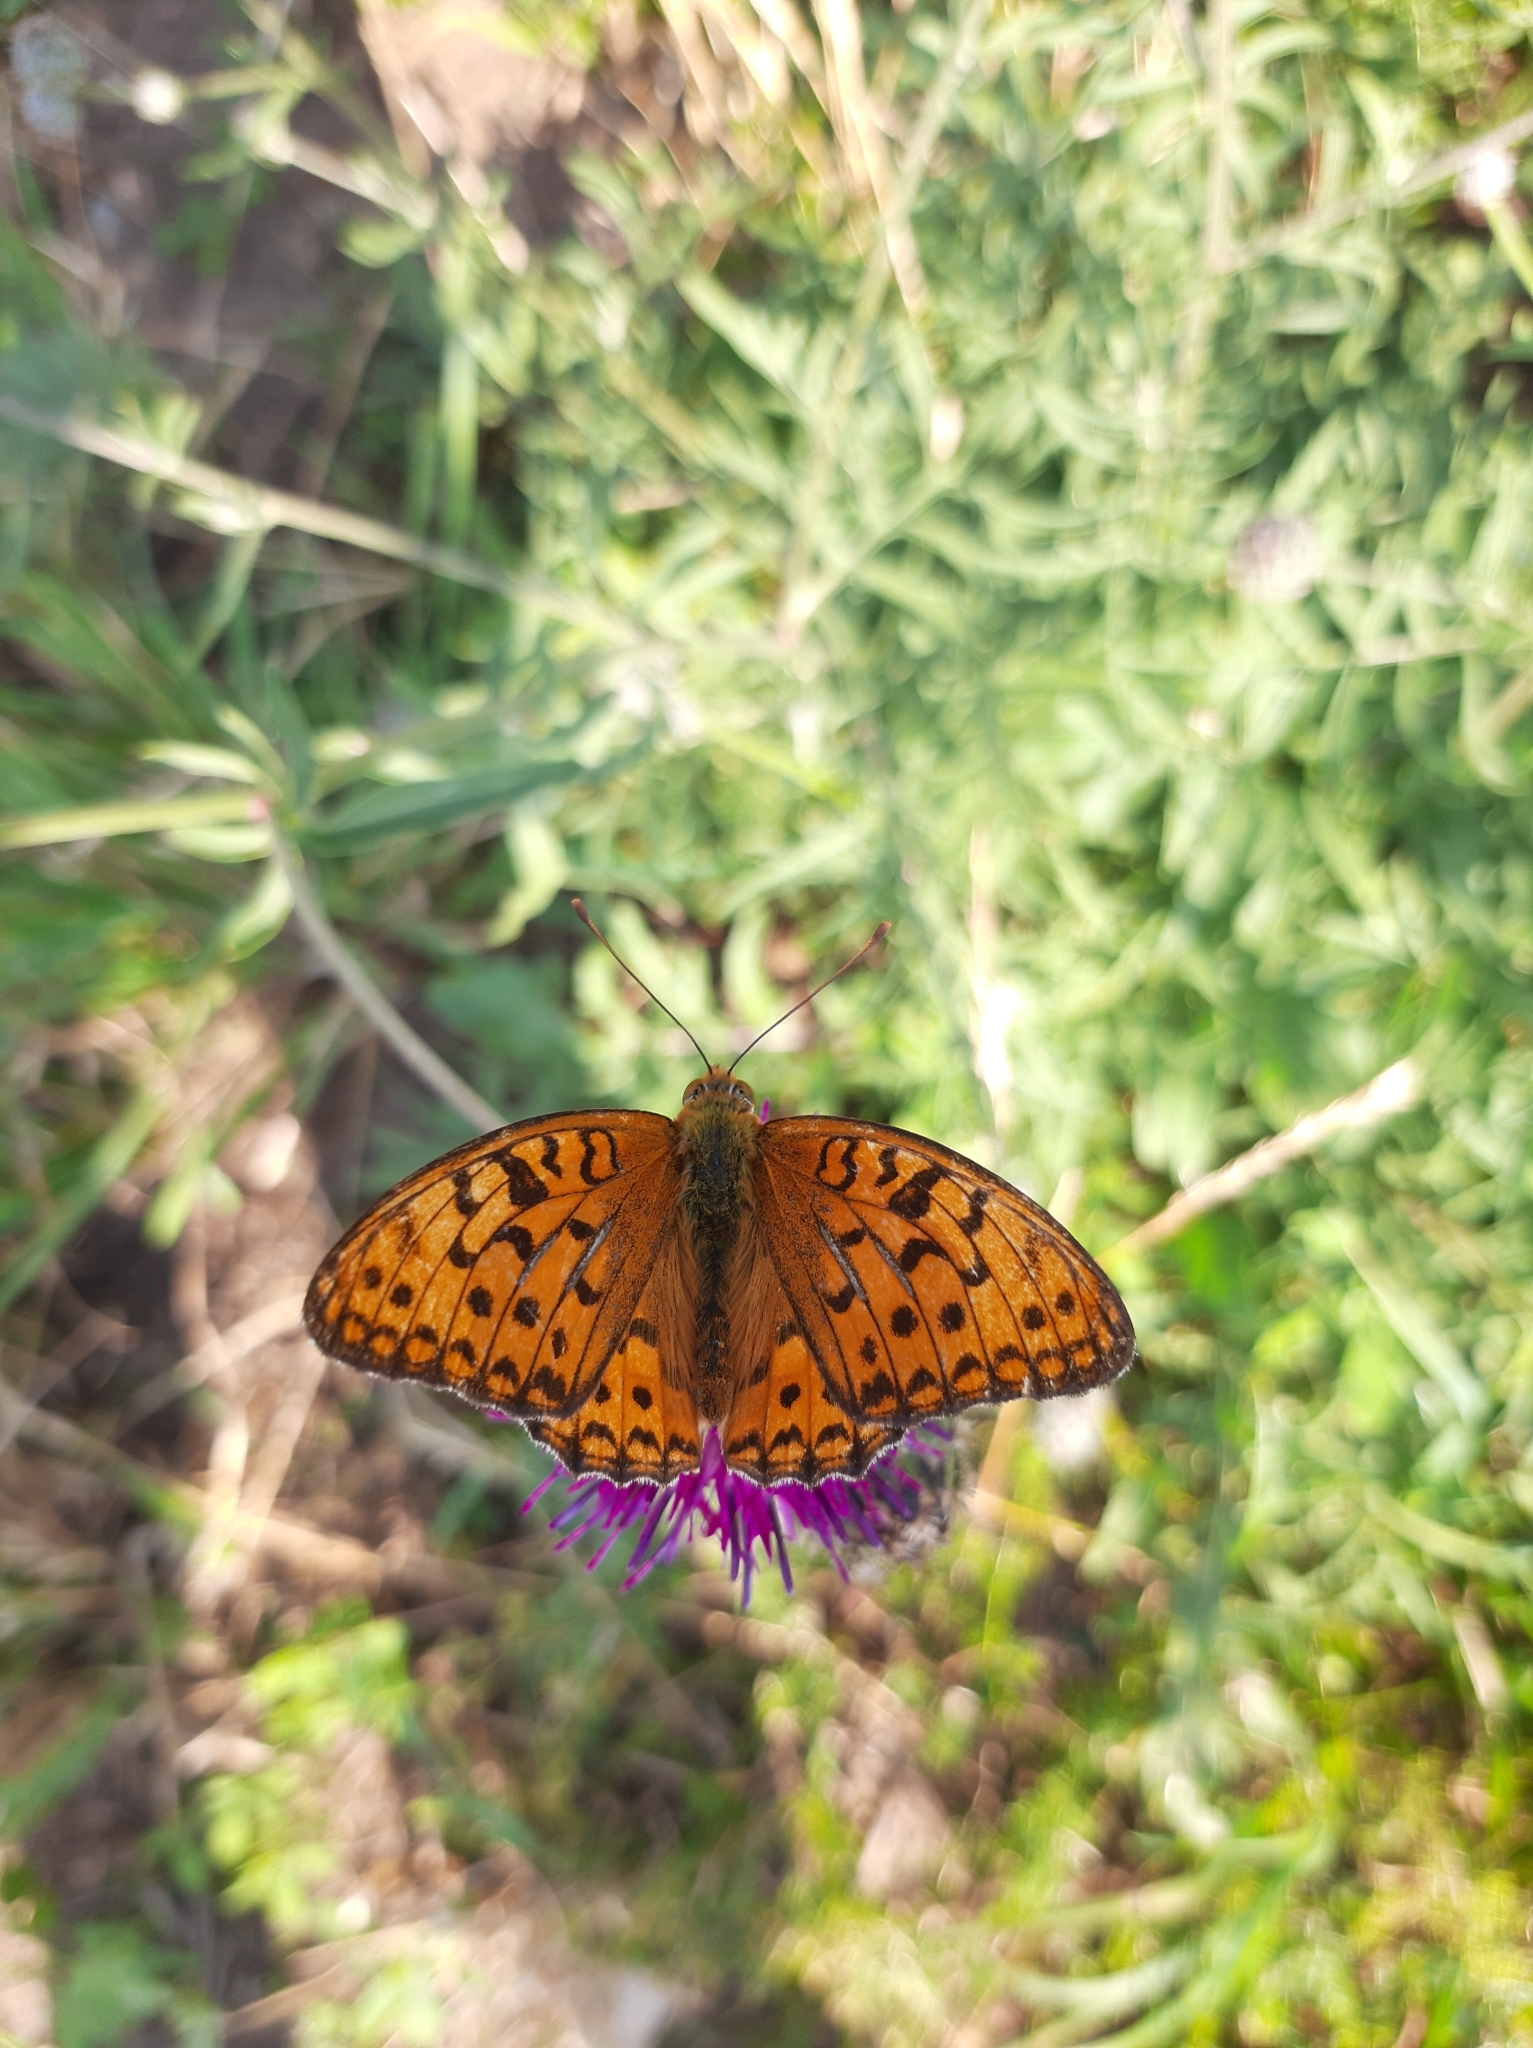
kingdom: Animalia
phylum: Arthropoda
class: Insecta
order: Lepidoptera
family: Nymphalidae
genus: Fabriciana
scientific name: Fabriciana adippe
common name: High brown fritillary
